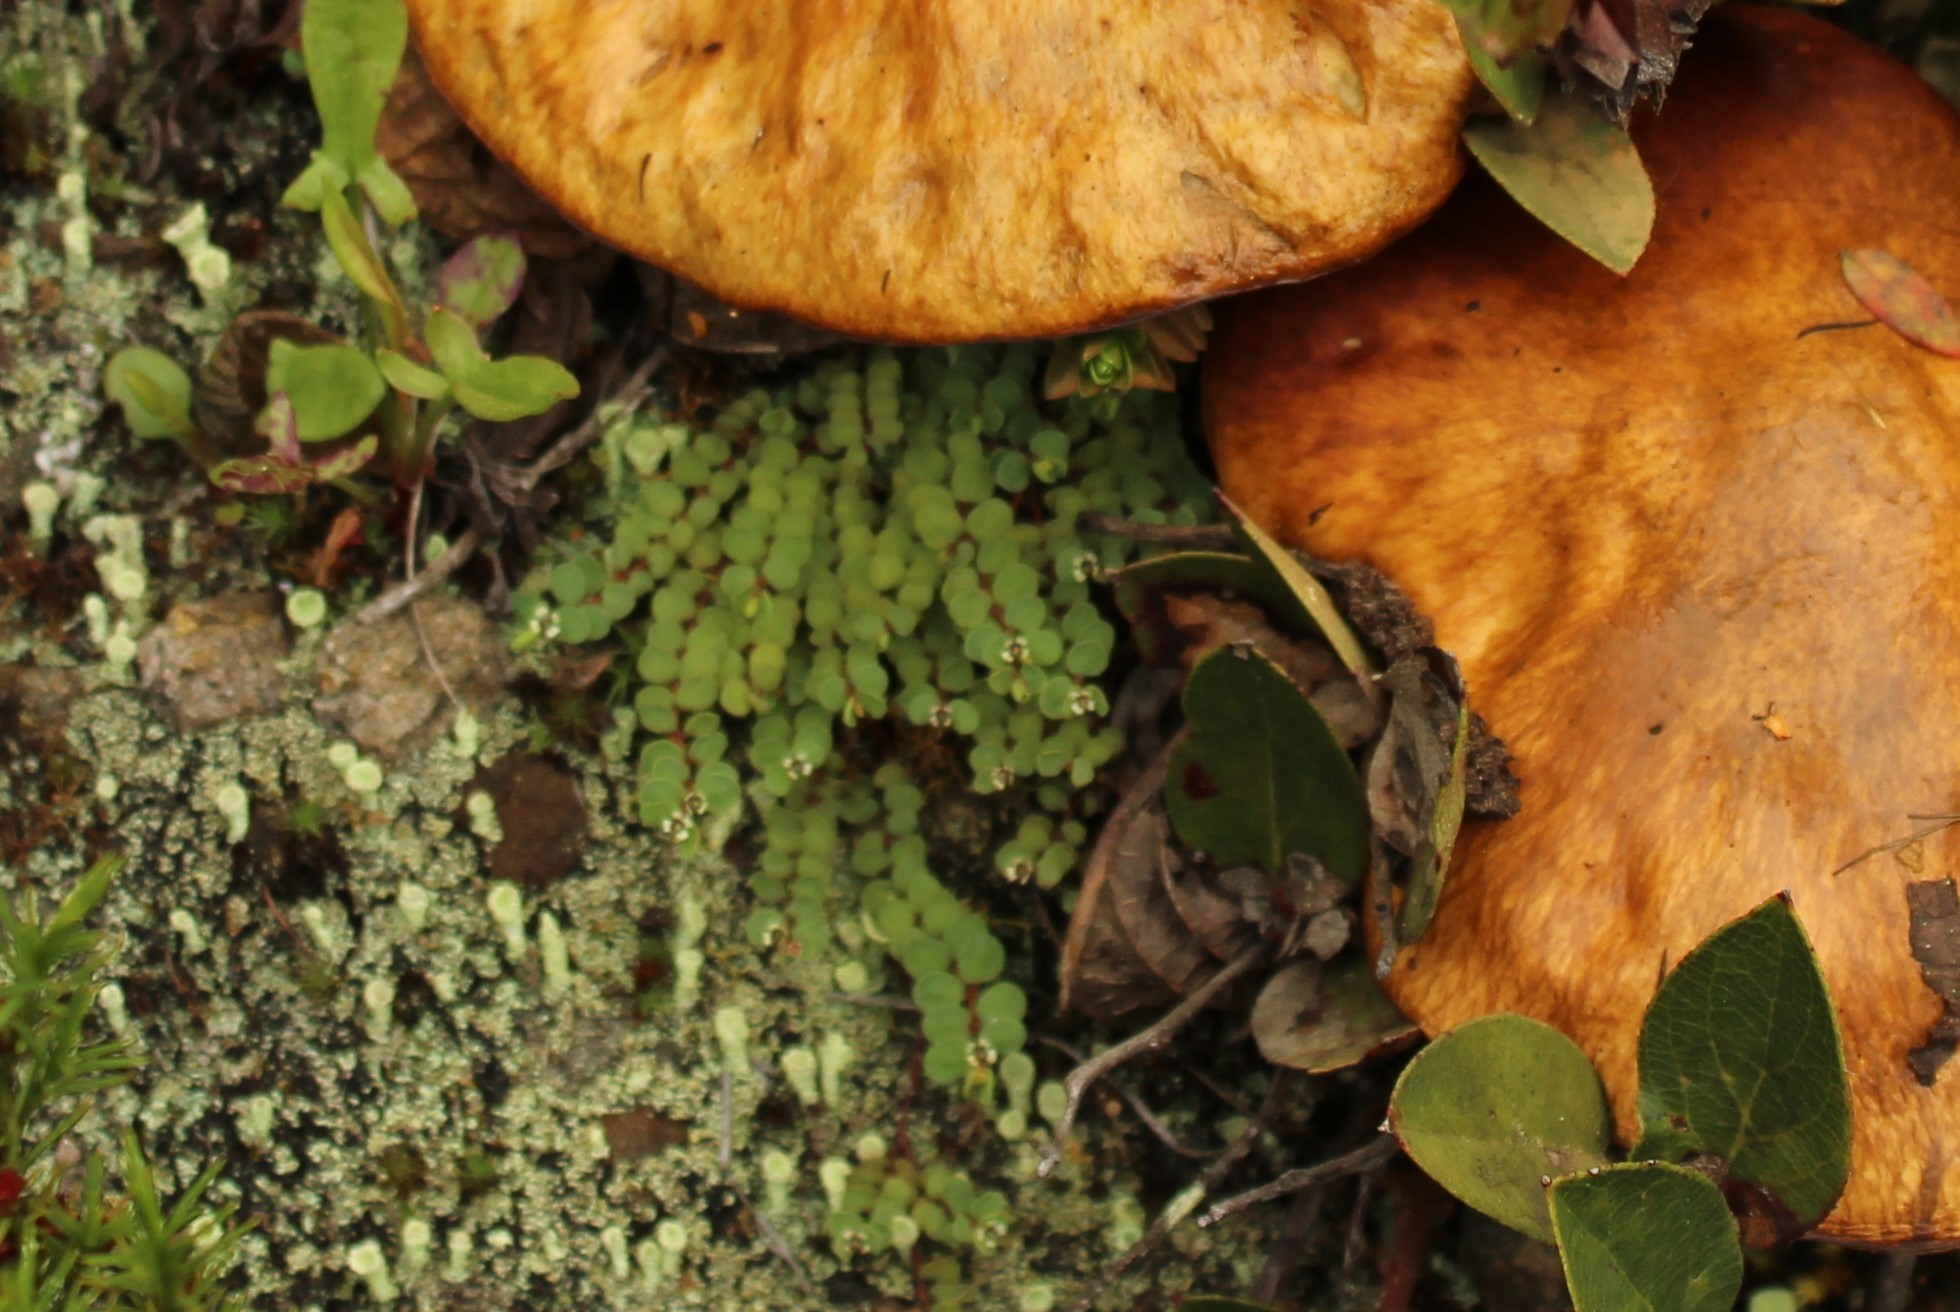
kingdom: Plantae
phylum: Tracheophyta
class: Magnoliopsida
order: Malpighiales
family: Euphorbiaceae
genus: Euphorbia
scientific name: Euphorbia orbiculata
